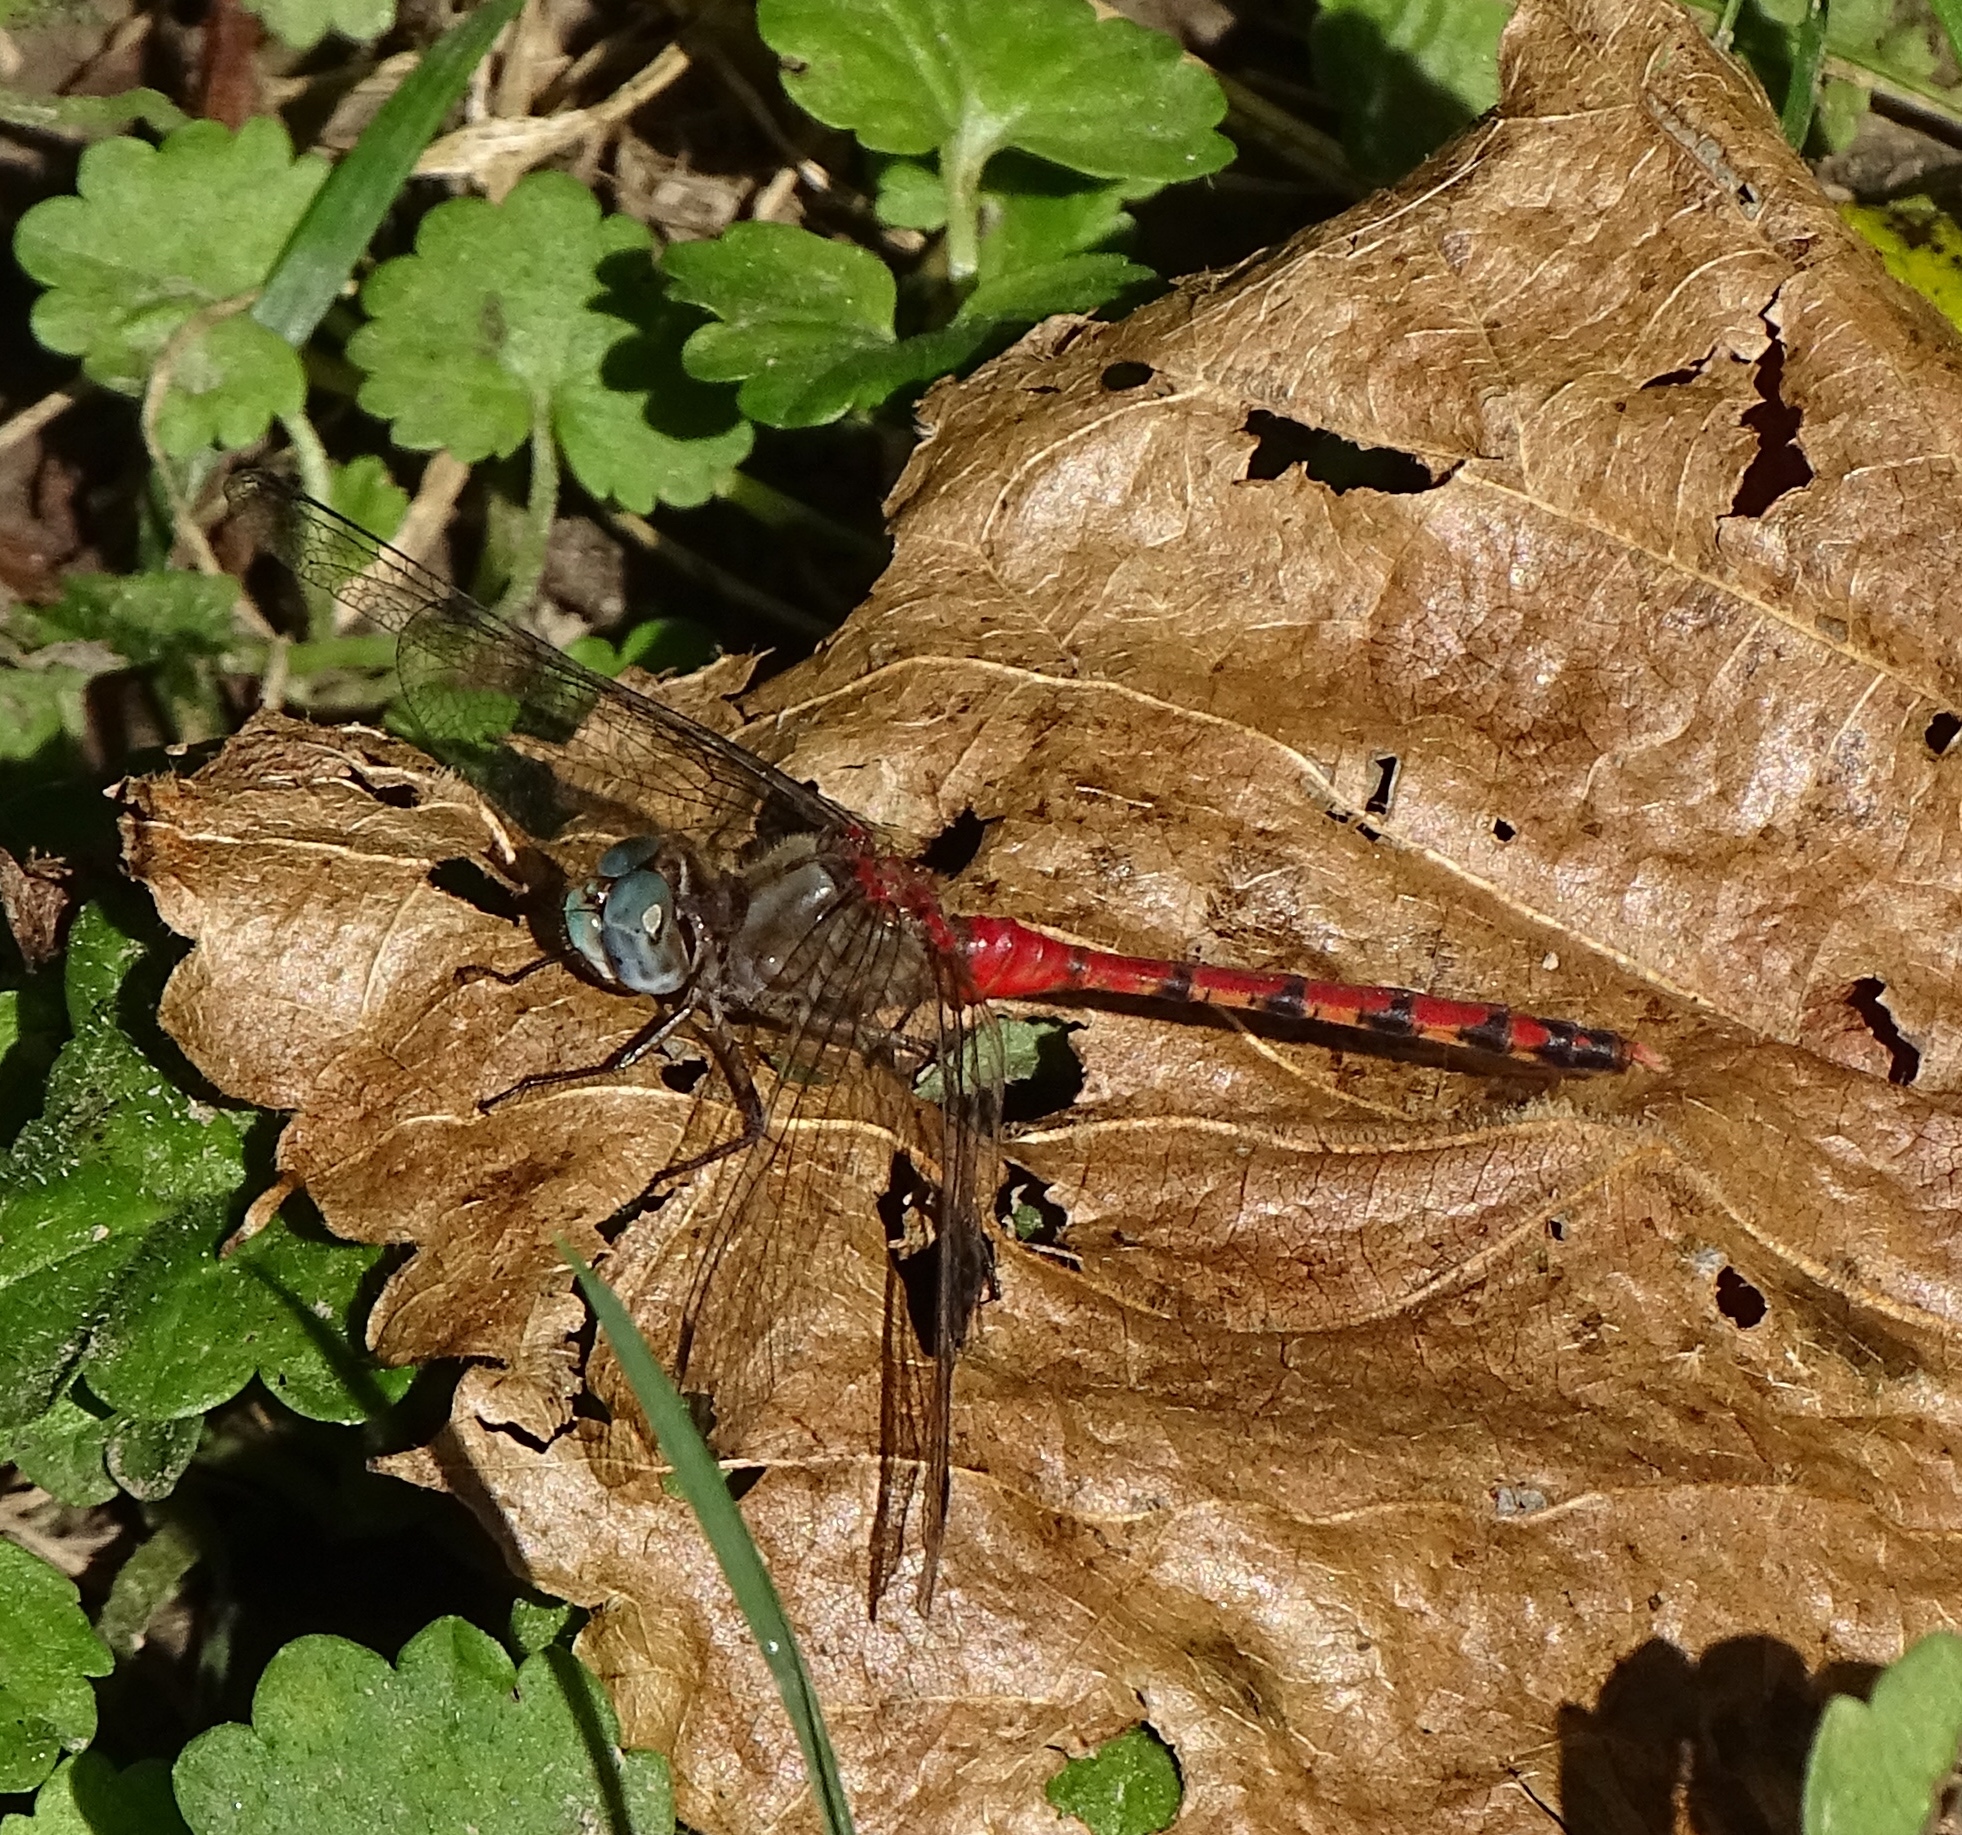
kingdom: Animalia
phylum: Arthropoda
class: Insecta
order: Odonata
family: Libellulidae
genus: Sympetrum
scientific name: Sympetrum ambiguum
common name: Blue-faced meadowhawk
